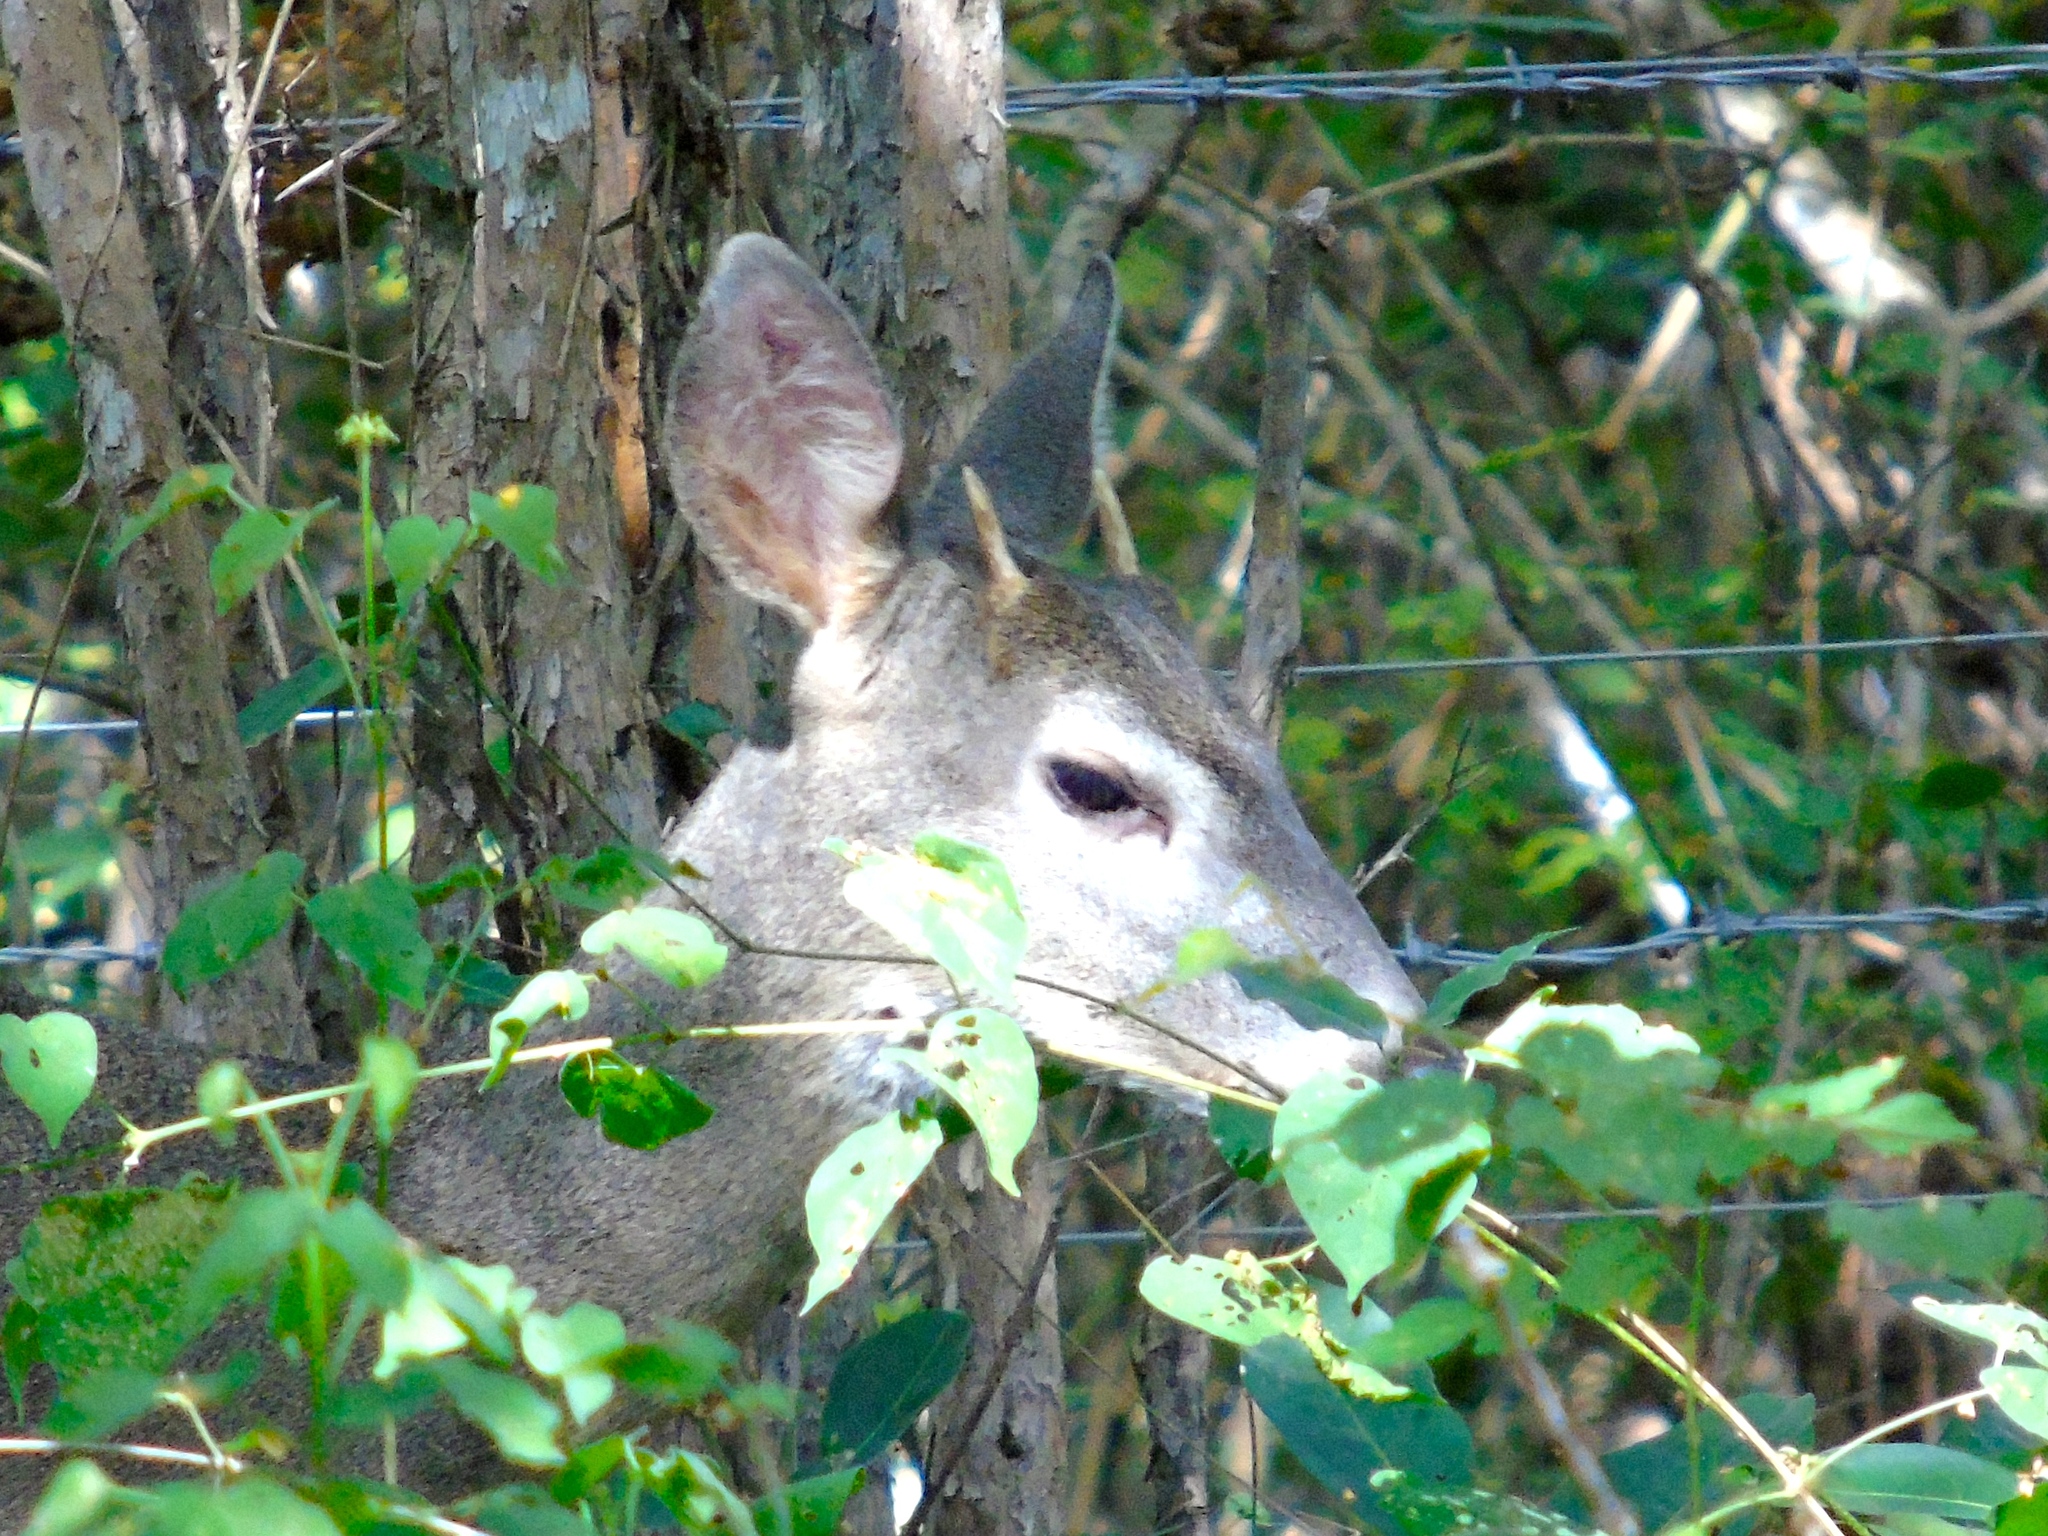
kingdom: Animalia
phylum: Chordata
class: Mammalia
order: Artiodactyla
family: Cervidae
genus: Odocoileus
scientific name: Odocoileus virginianus
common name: White-tailed deer
